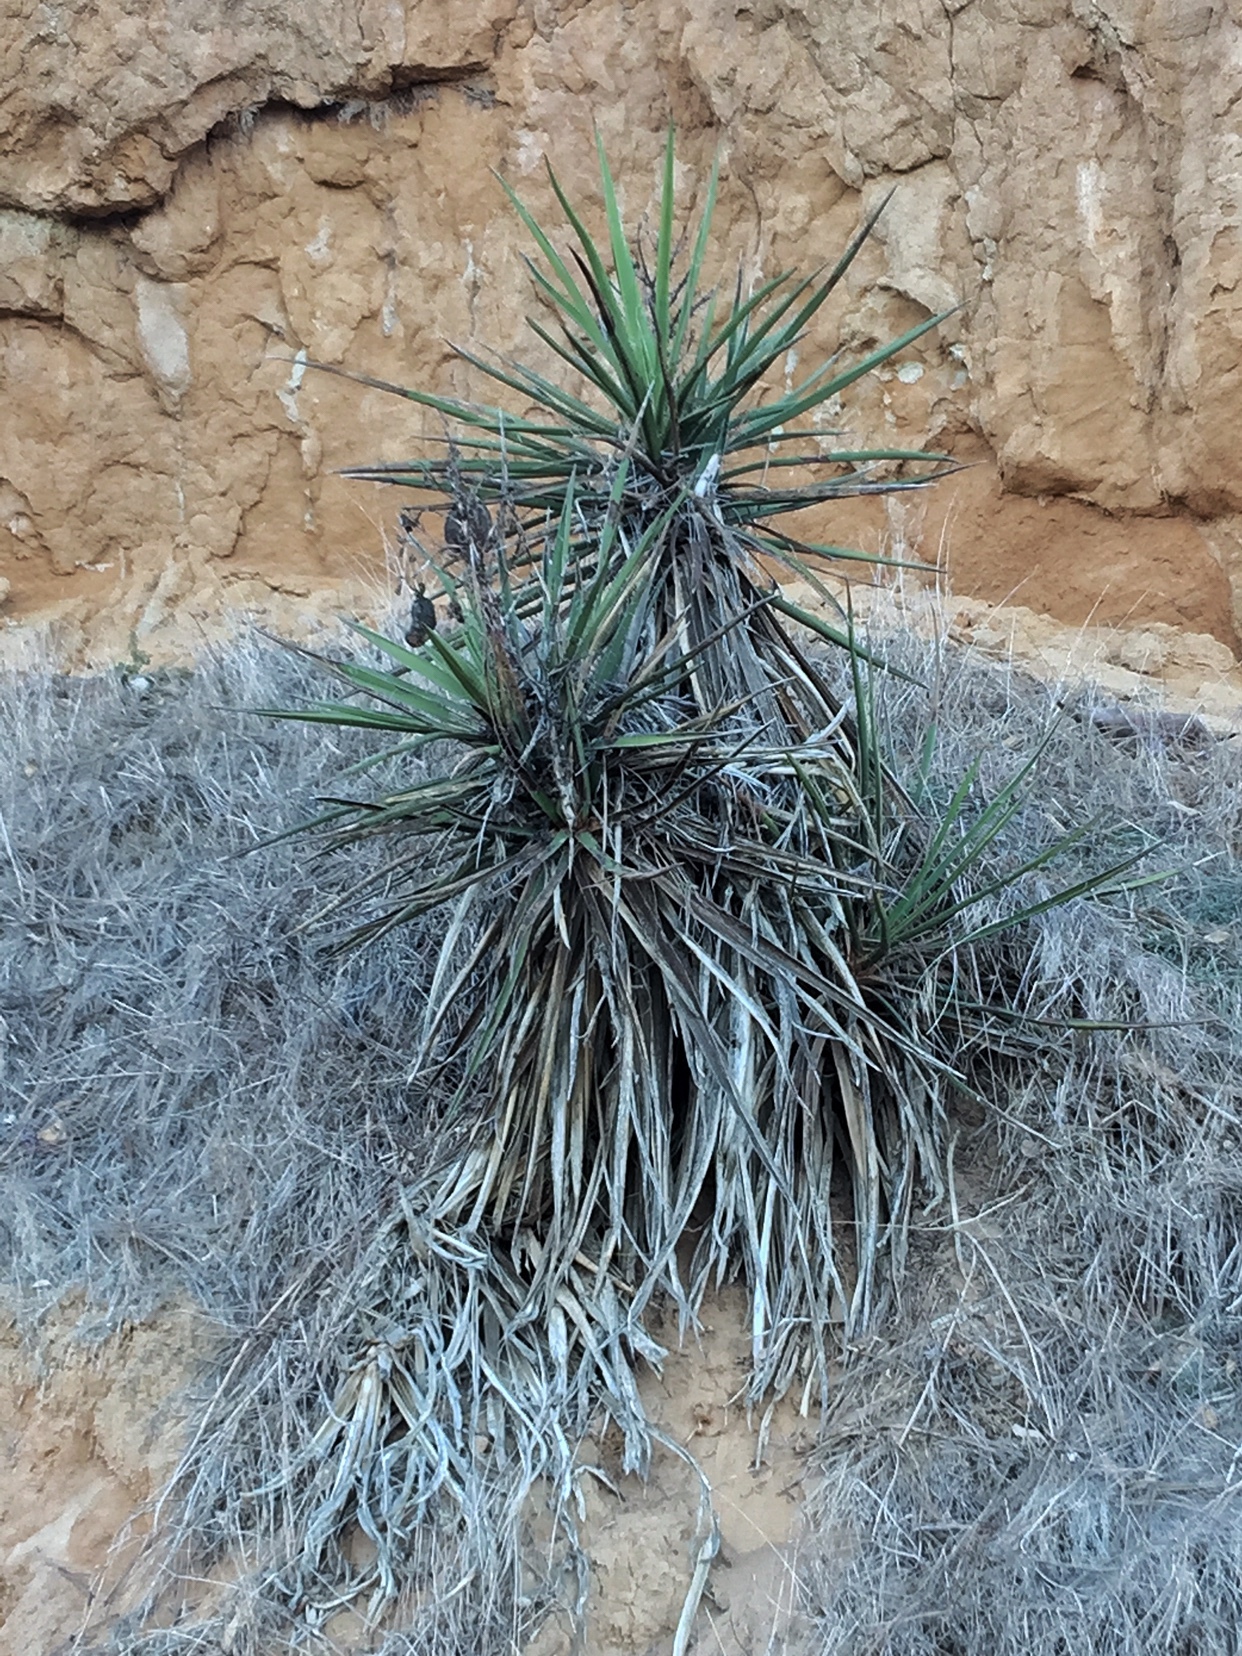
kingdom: Plantae
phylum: Tracheophyta
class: Liliopsida
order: Asparagales
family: Asparagaceae
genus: Yucca
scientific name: Yucca schidigera
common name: Mojave yucca
